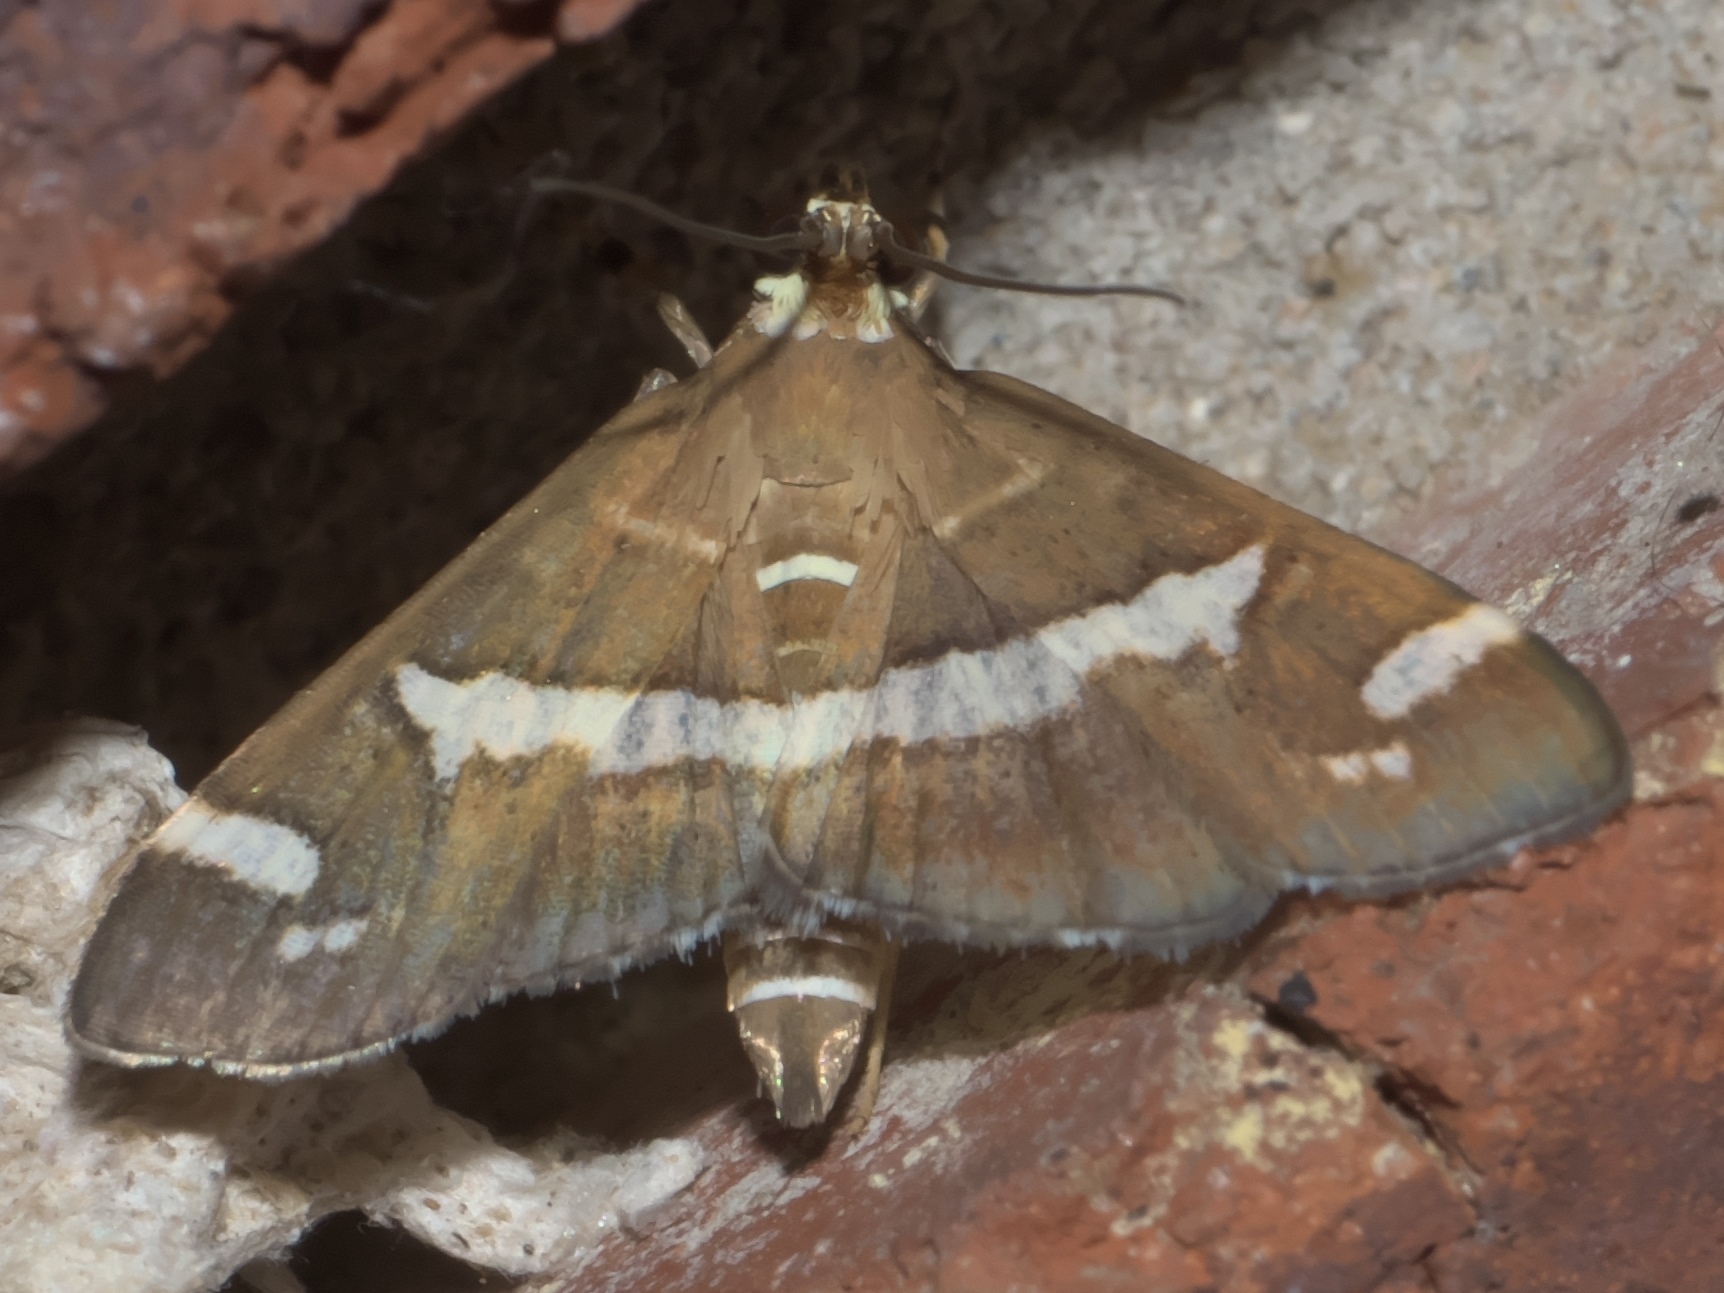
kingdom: Animalia
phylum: Arthropoda
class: Insecta
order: Lepidoptera
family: Crambidae
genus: Spoladea
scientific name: Spoladea recurvalis
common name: Beet webworm moth
